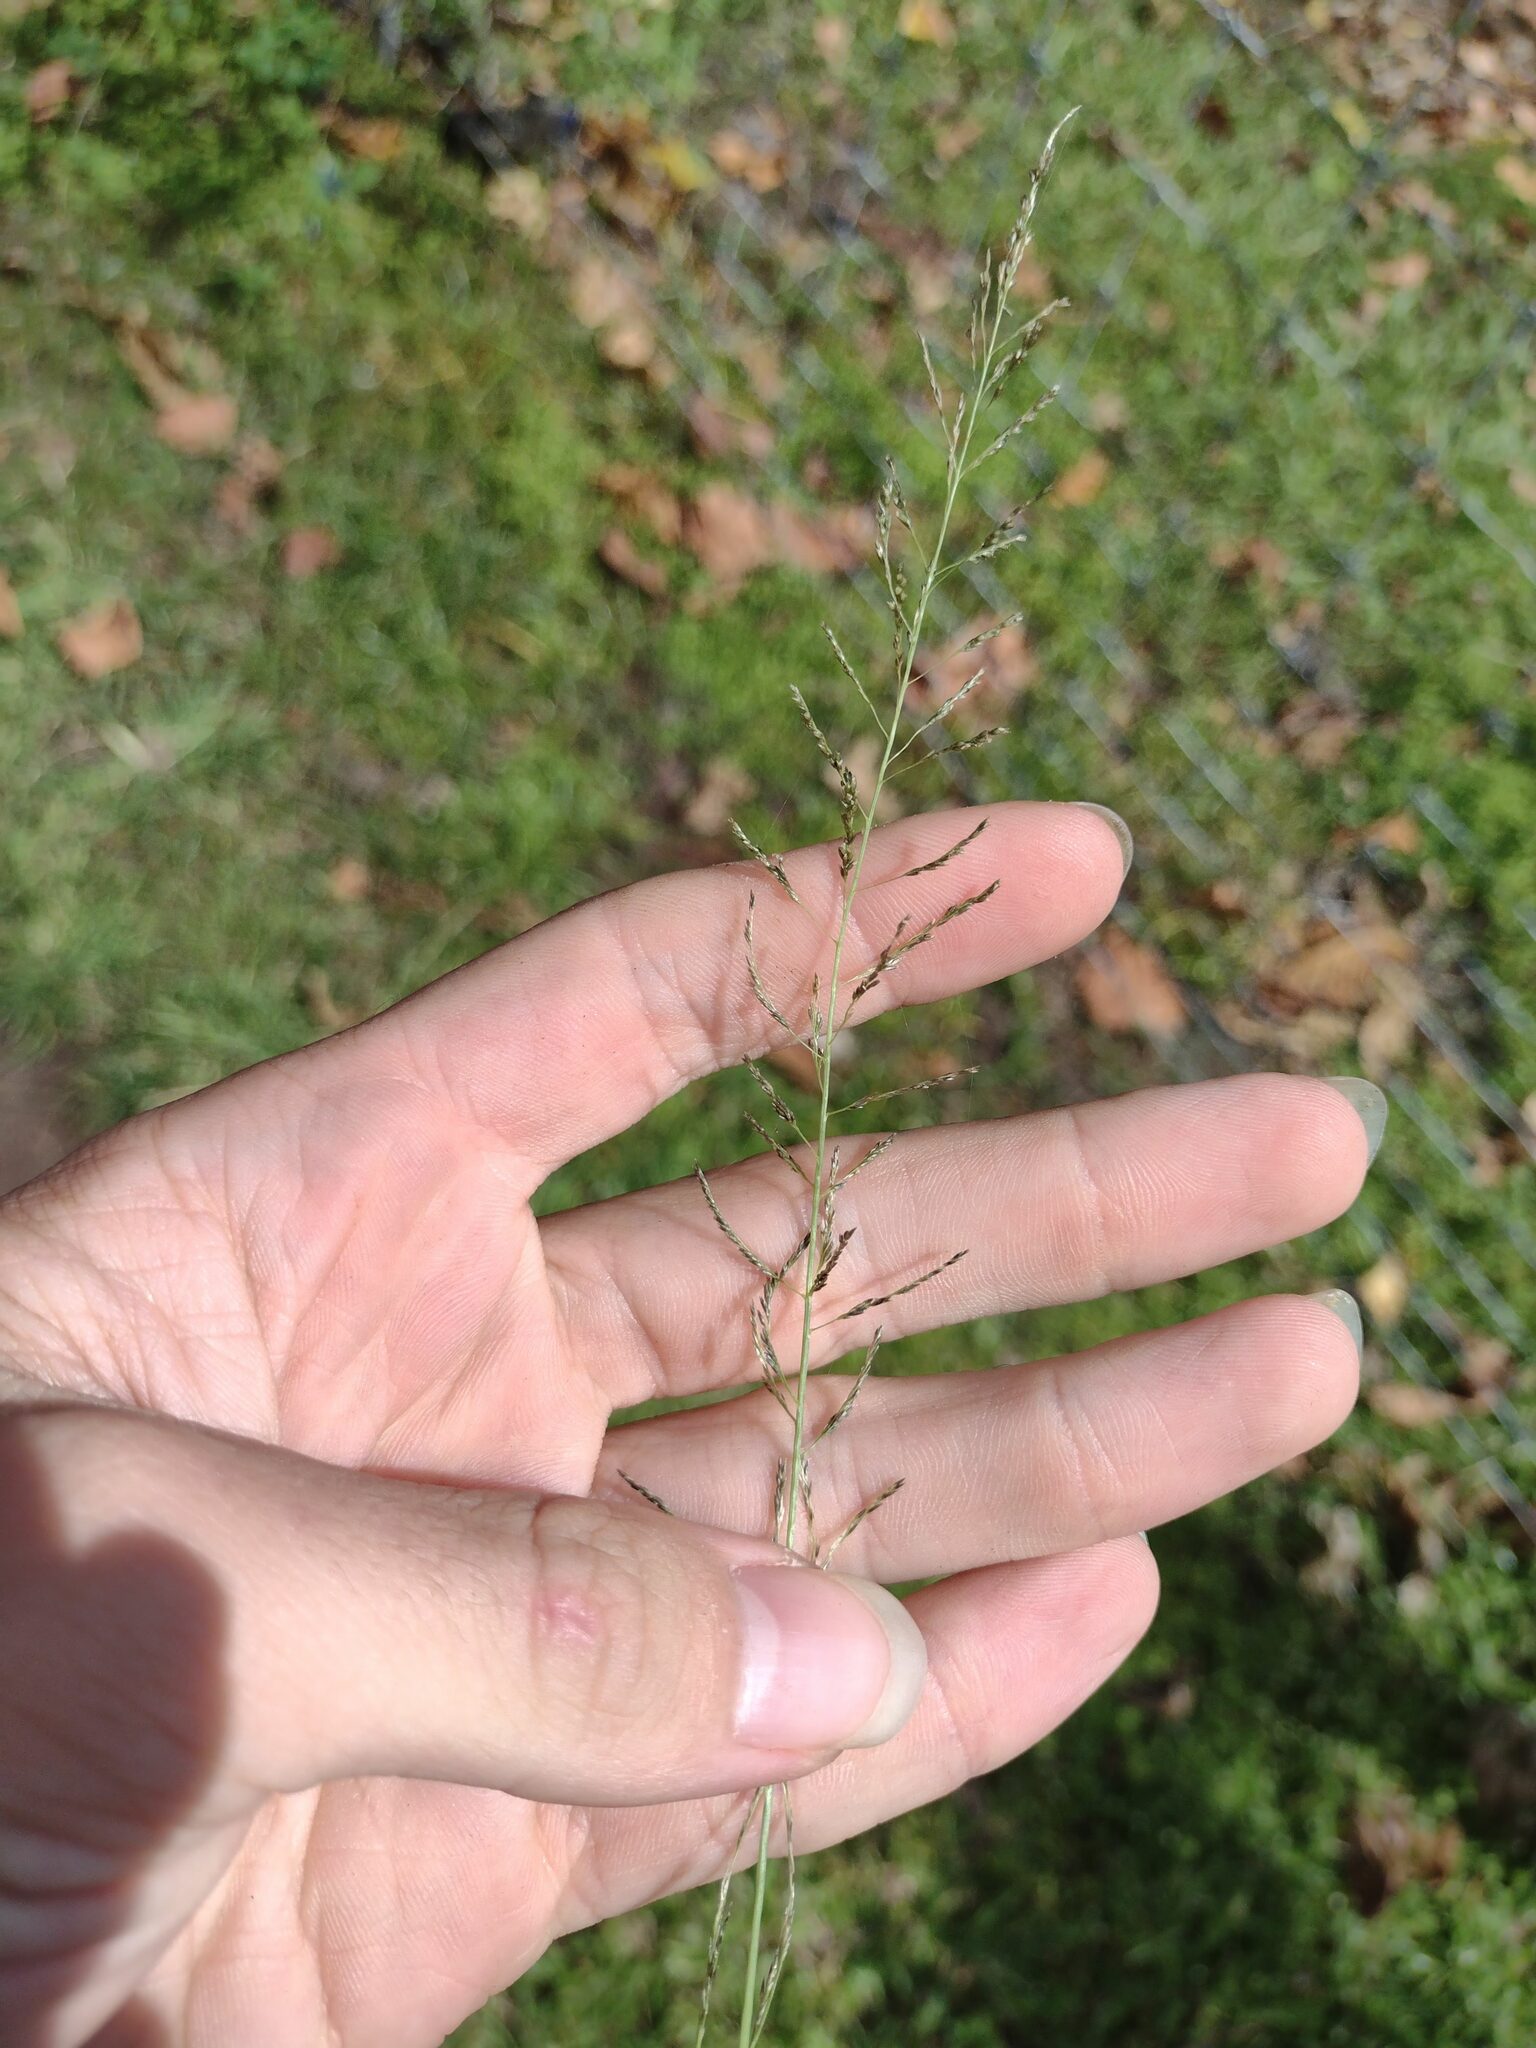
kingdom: Plantae
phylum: Tracheophyta
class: Liliopsida
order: Poales
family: Poaceae
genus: Sporobolus
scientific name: Sporobolus diandrus
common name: Tussock dropseed
